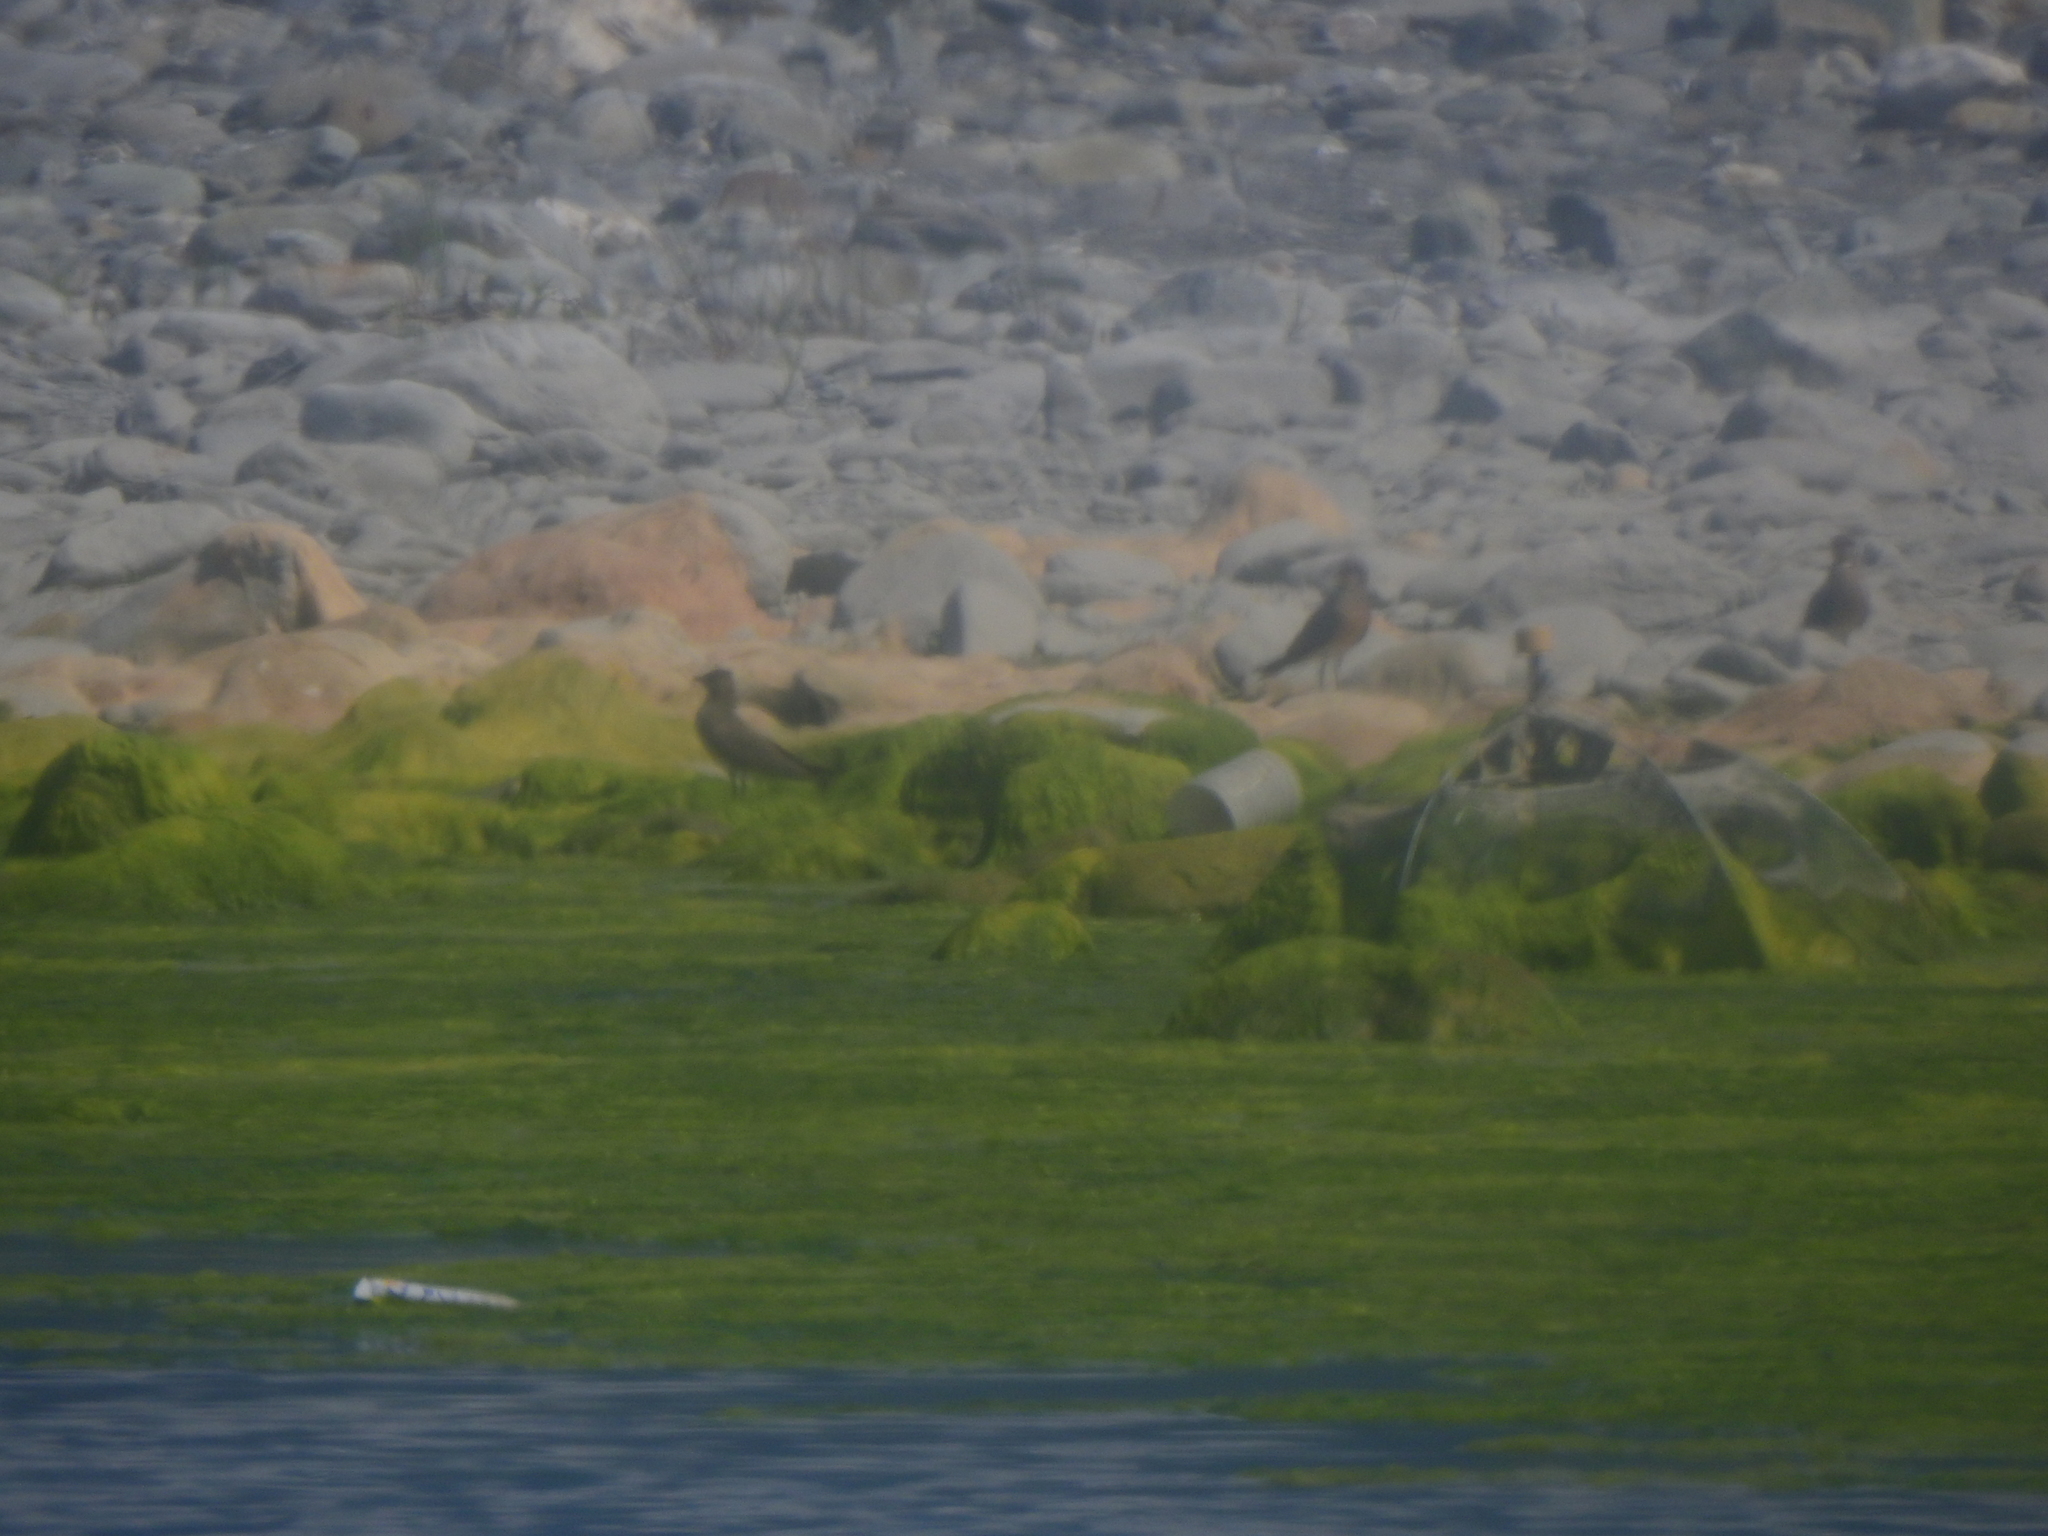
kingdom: Animalia
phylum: Chordata
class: Aves
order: Charadriiformes
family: Glareolidae
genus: Glareola
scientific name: Glareola maldivarum
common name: Oriental pratincole
